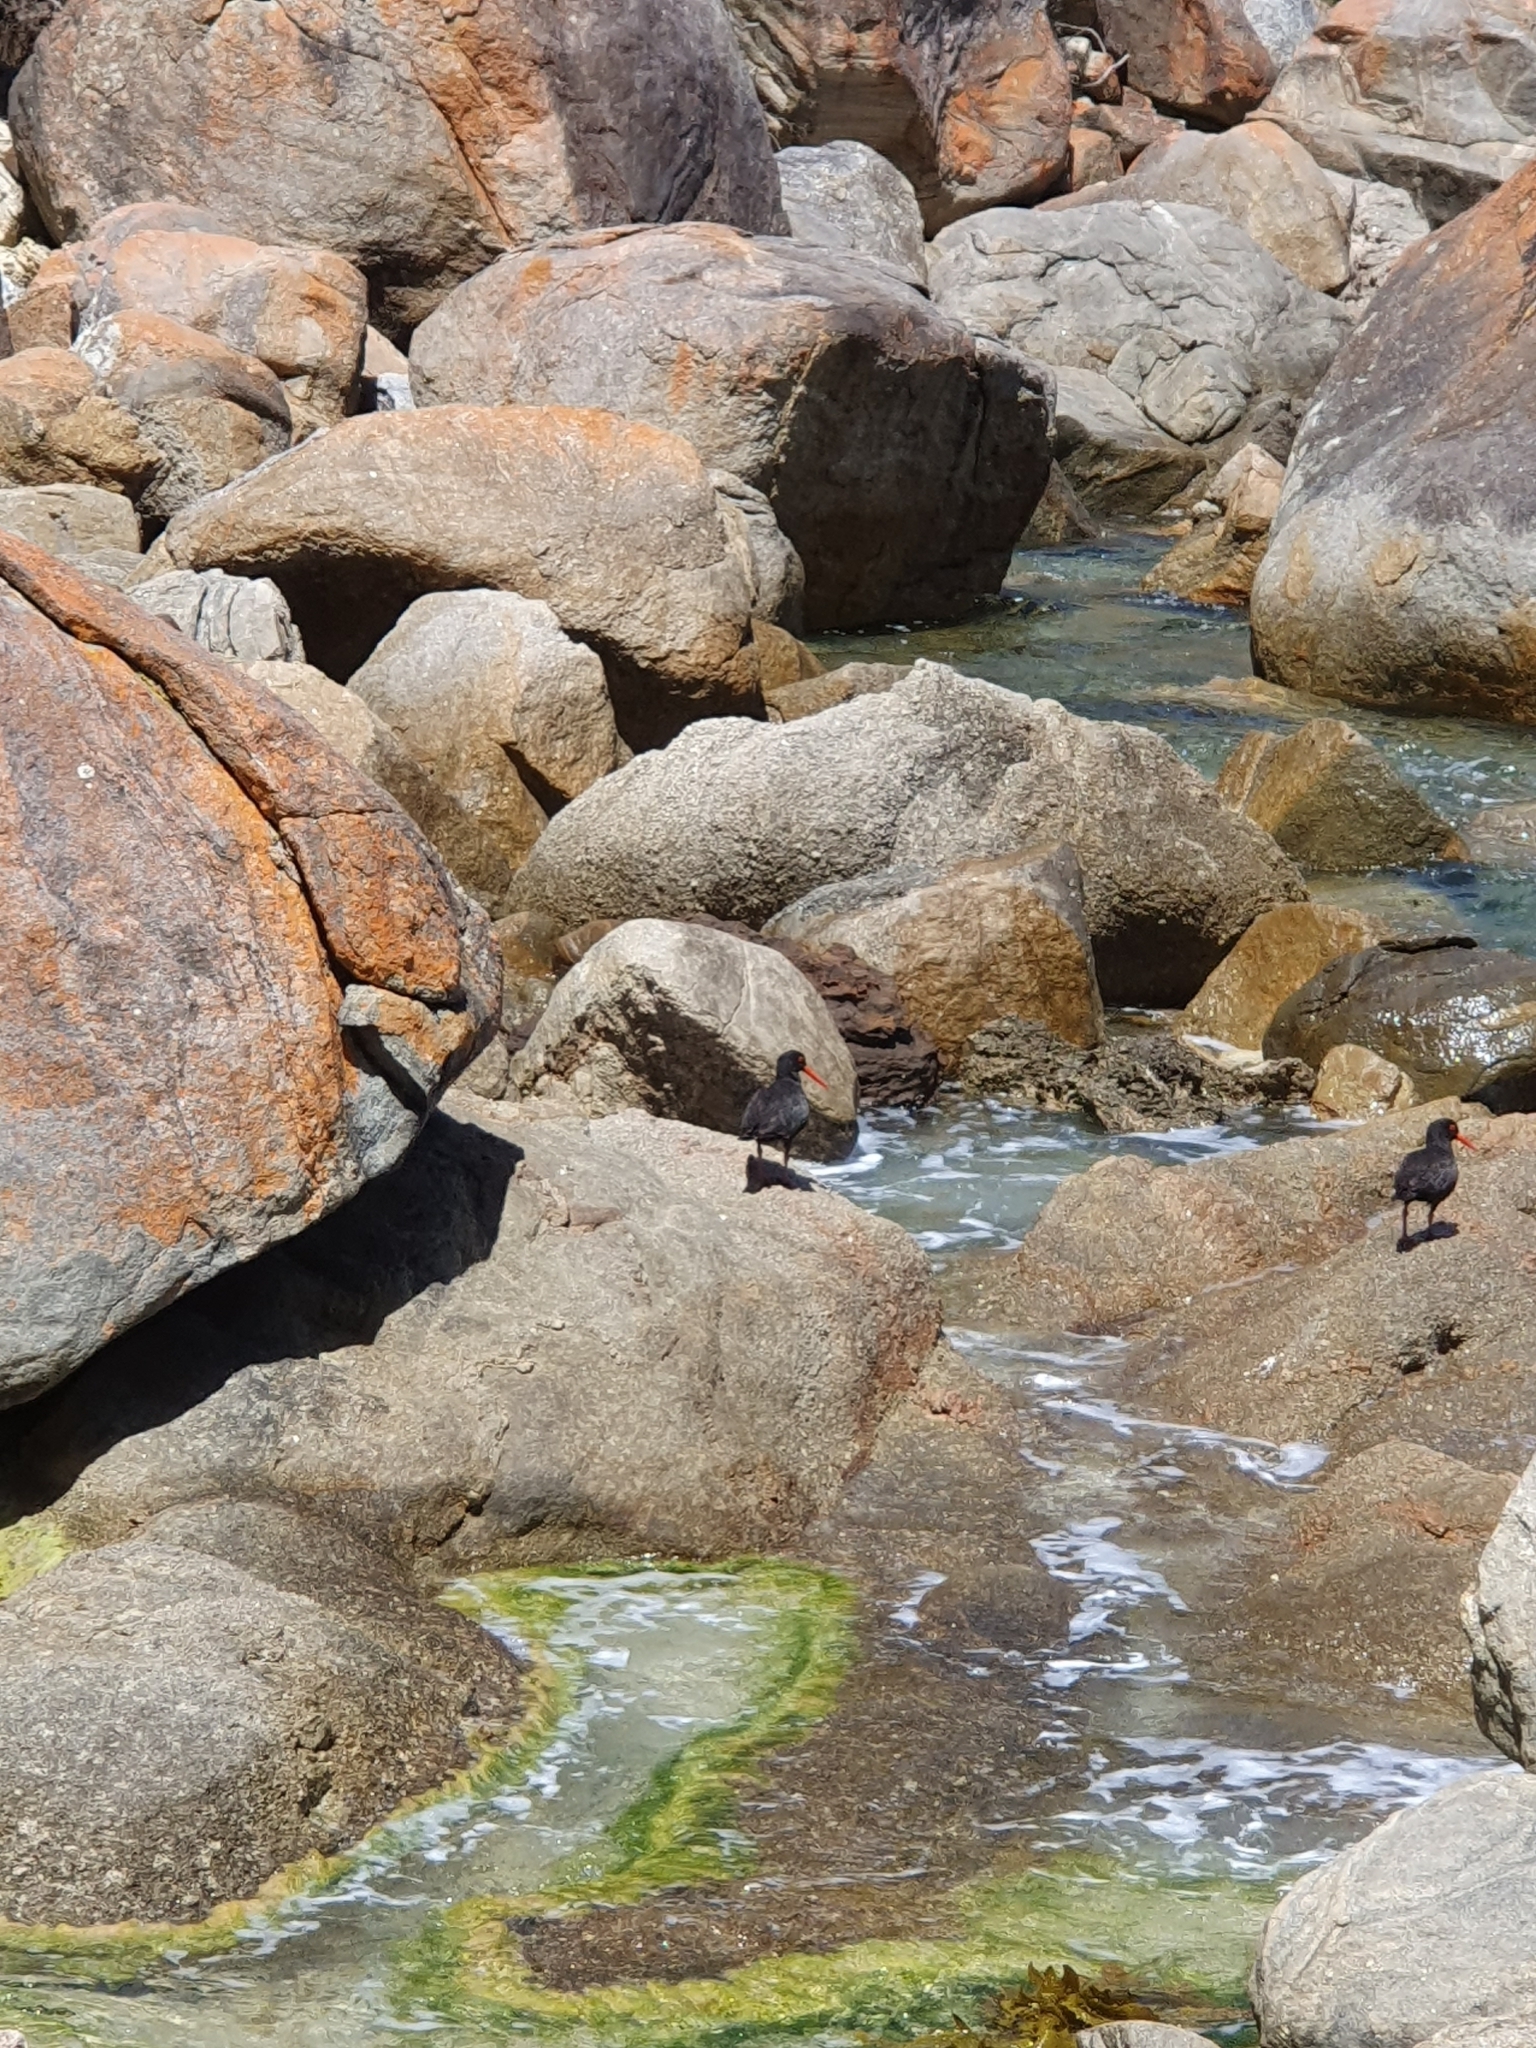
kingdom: Animalia
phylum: Chordata
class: Aves
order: Charadriiformes
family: Haematopodidae
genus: Haematopus
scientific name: Haematopus fuliginosus
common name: Sooty oystercatcher
